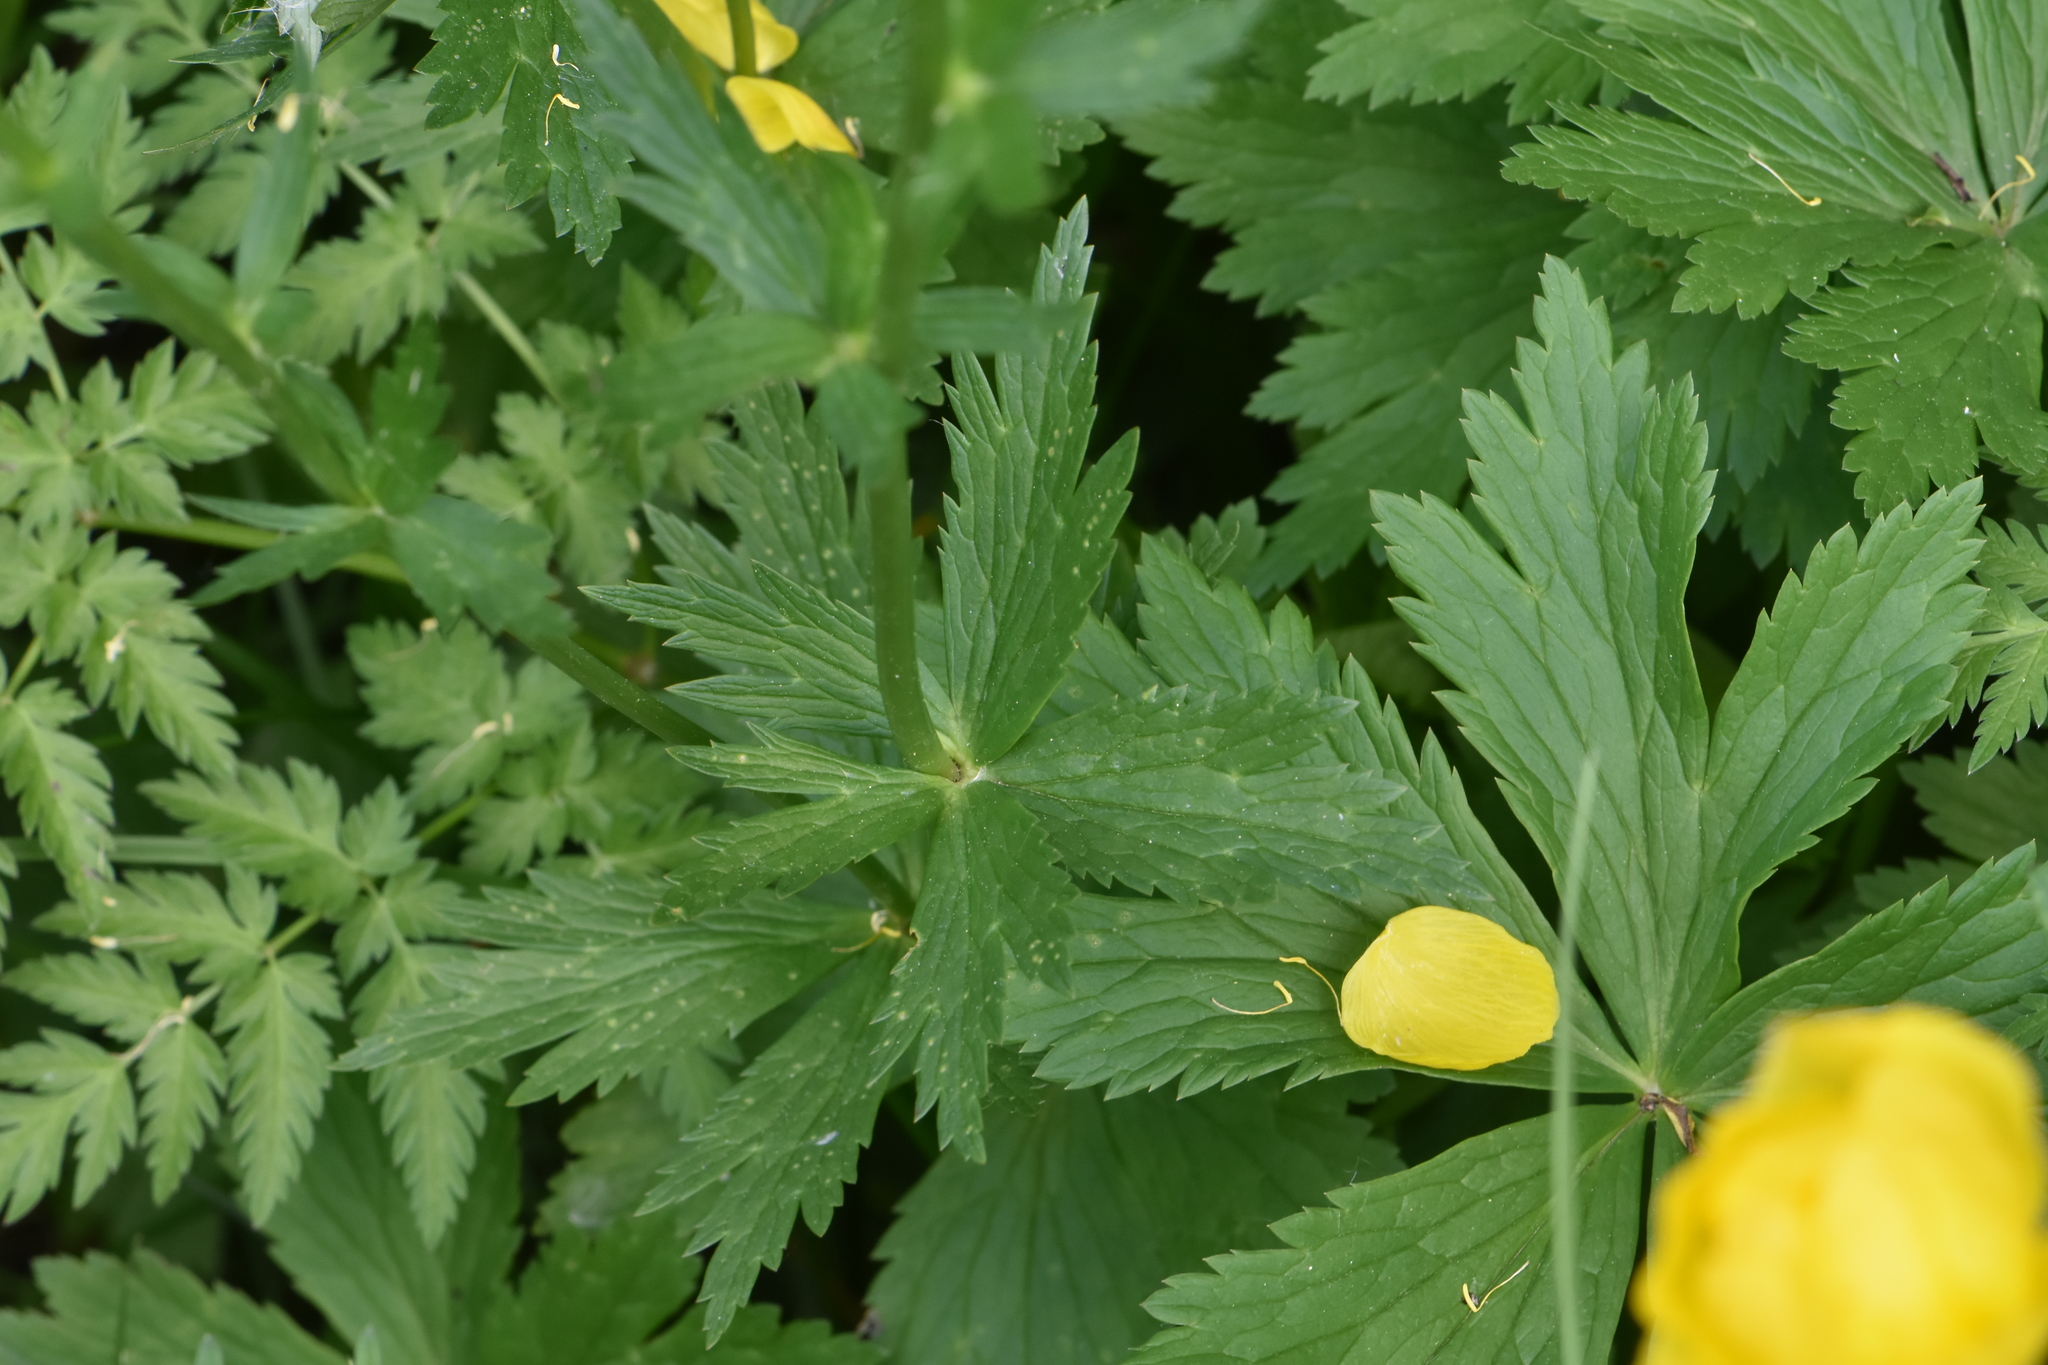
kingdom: Plantae
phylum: Tracheophyta
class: Magnoliopsida
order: Ranunculales
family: Ranunculaceae
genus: Trollius
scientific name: Trollius europaeus
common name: European globeflower
